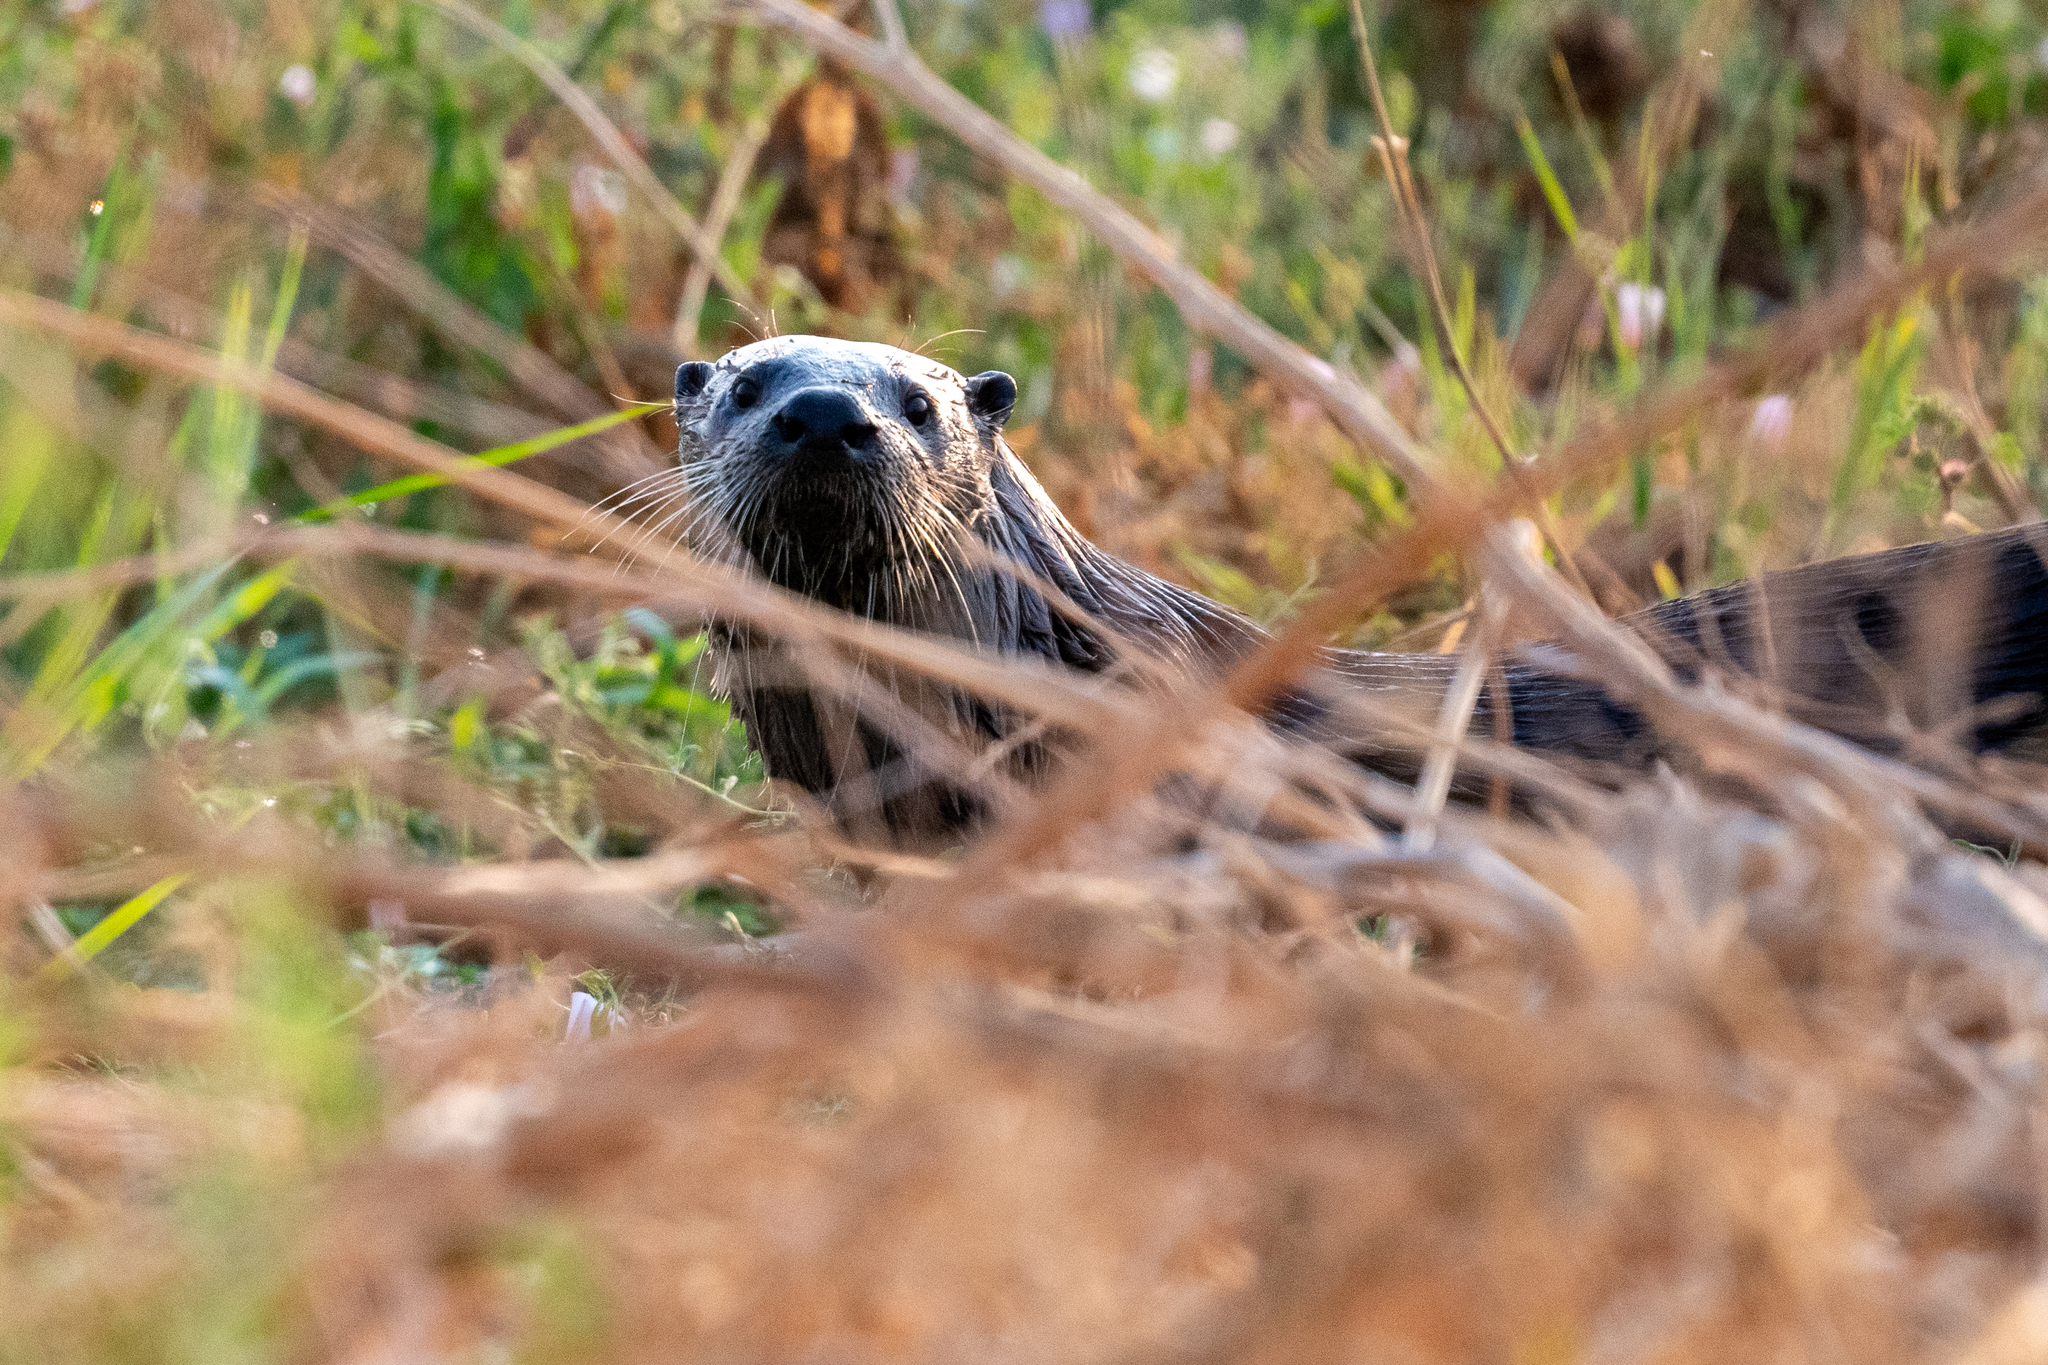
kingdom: Animalia
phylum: Chordata
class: Mammalia
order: Carnivora
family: Mustelidae
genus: Lontra
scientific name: Lontra canadensis
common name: North american river otter
